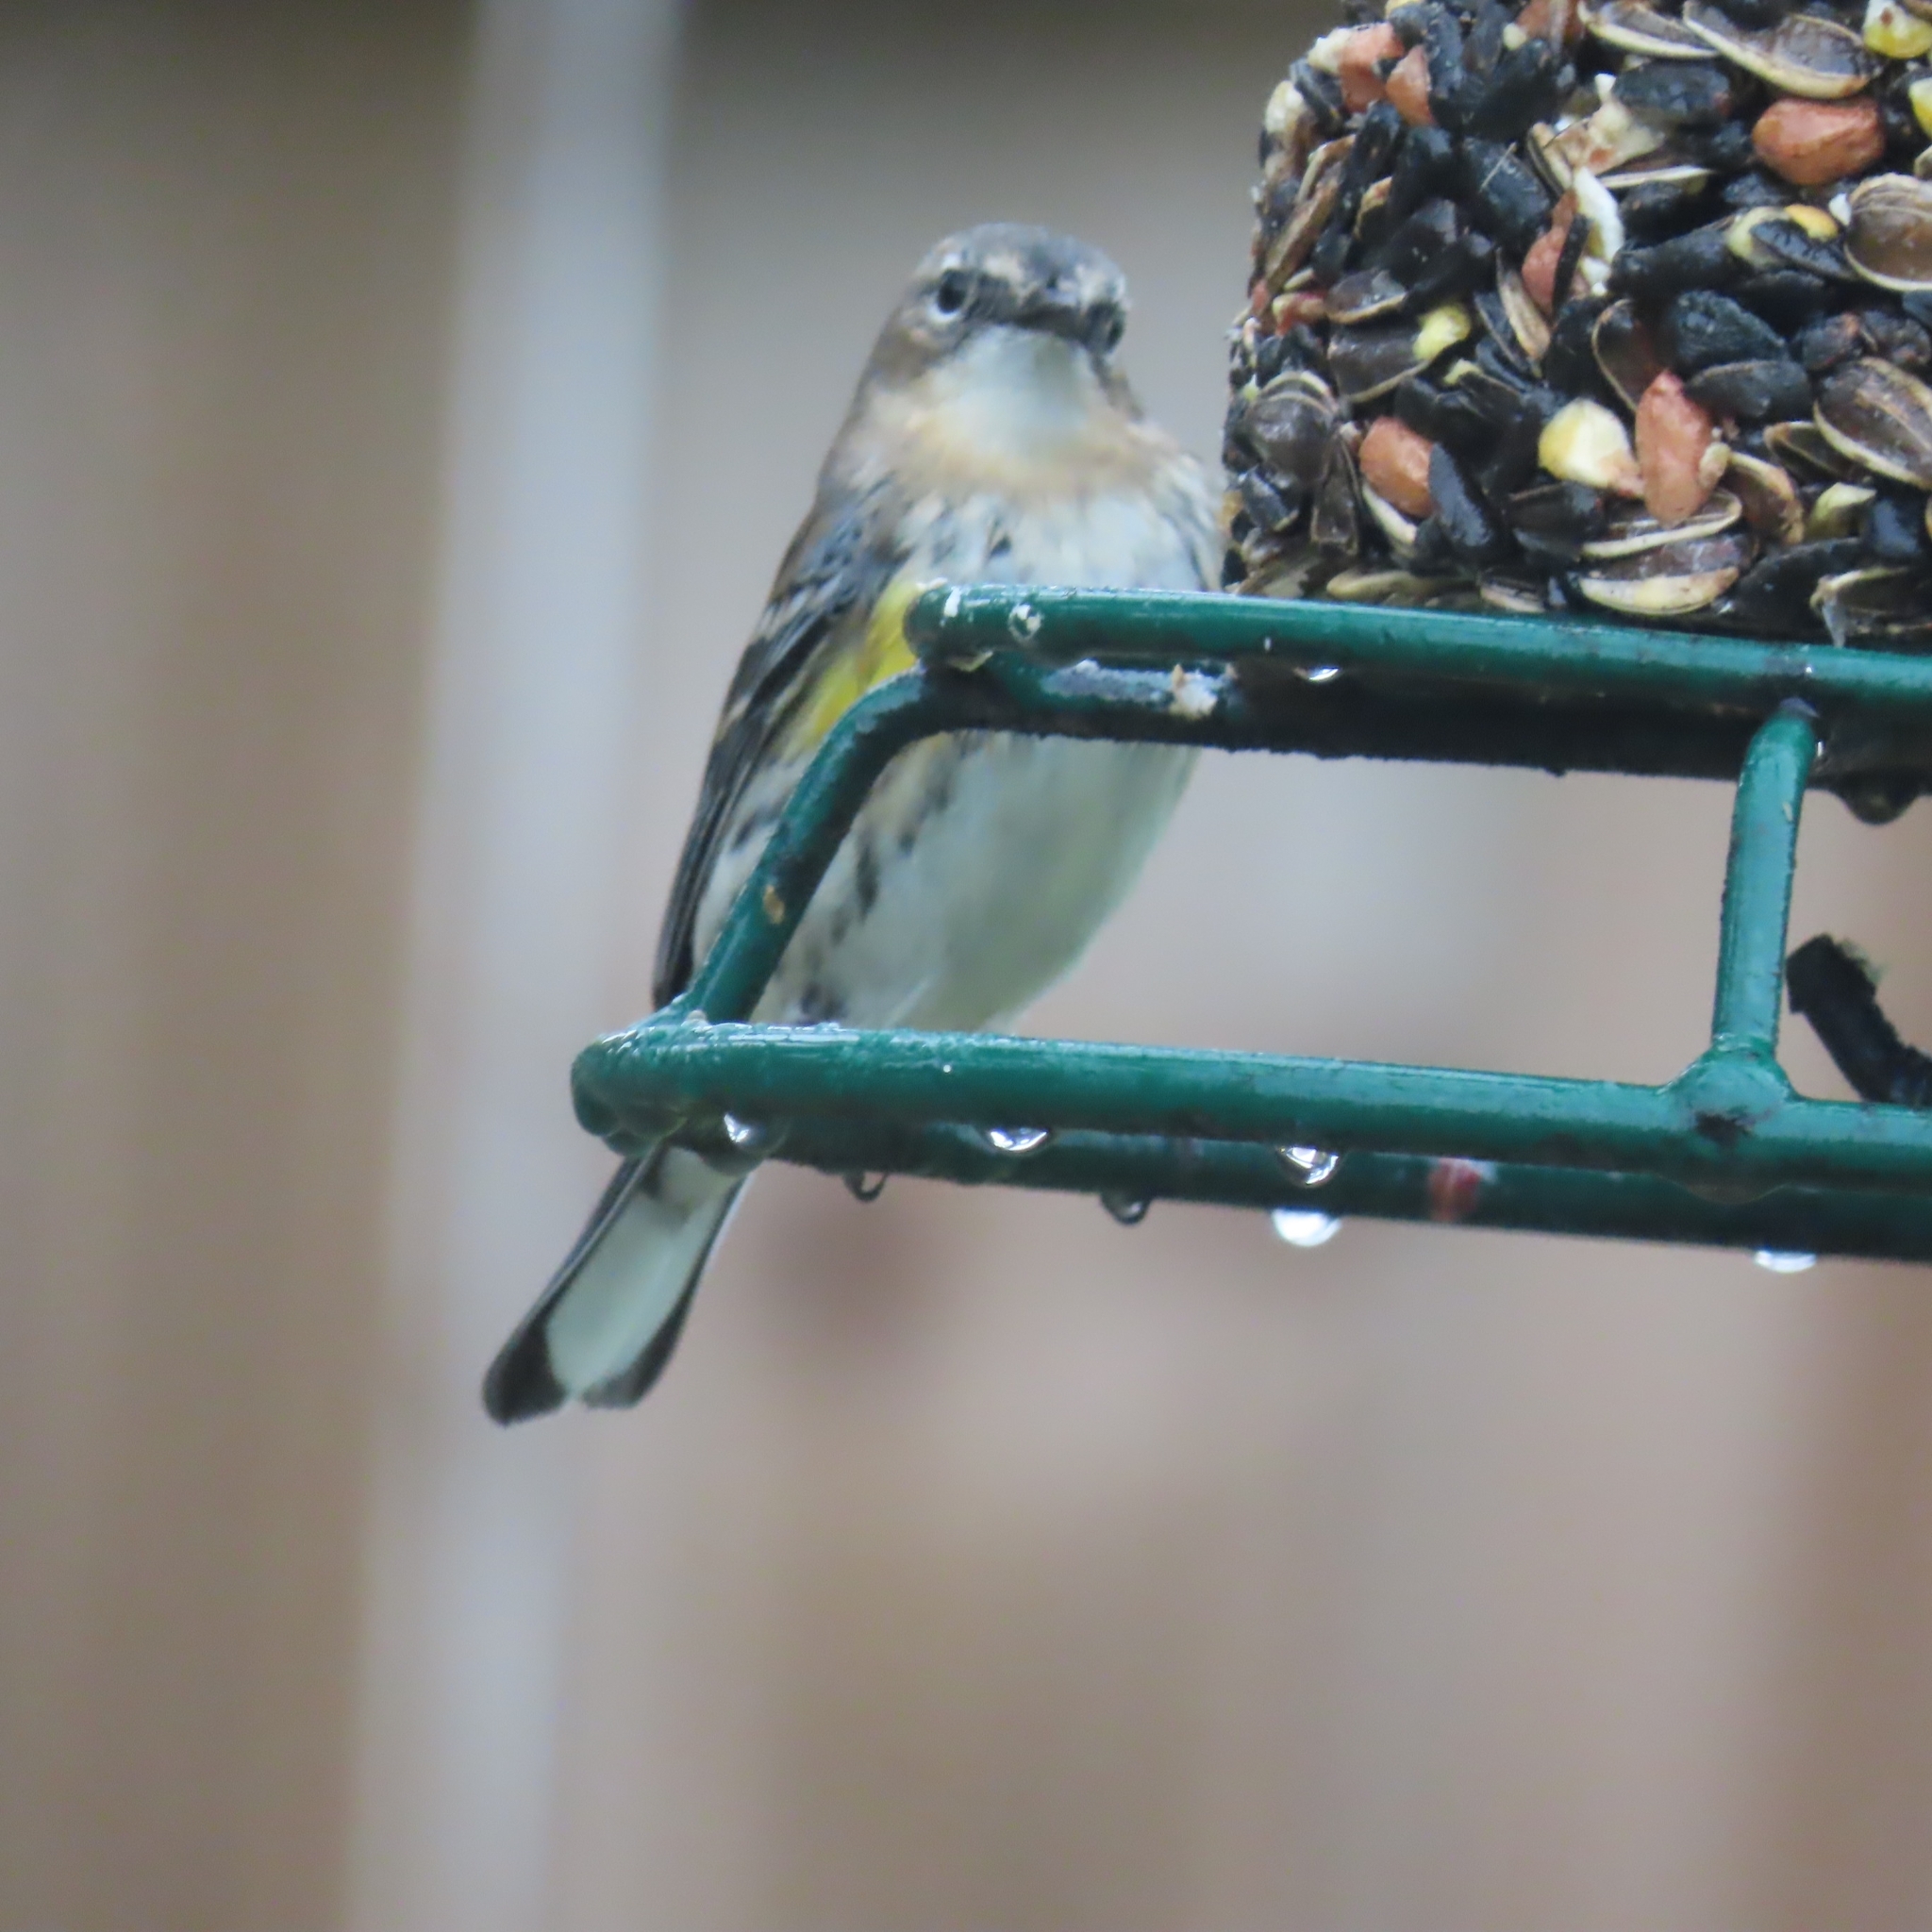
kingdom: Animalia
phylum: Chordata
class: Aves
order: Passeriformes
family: Parulidae
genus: Setophaga
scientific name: Setophaga coronata
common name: Myrtle warbler
